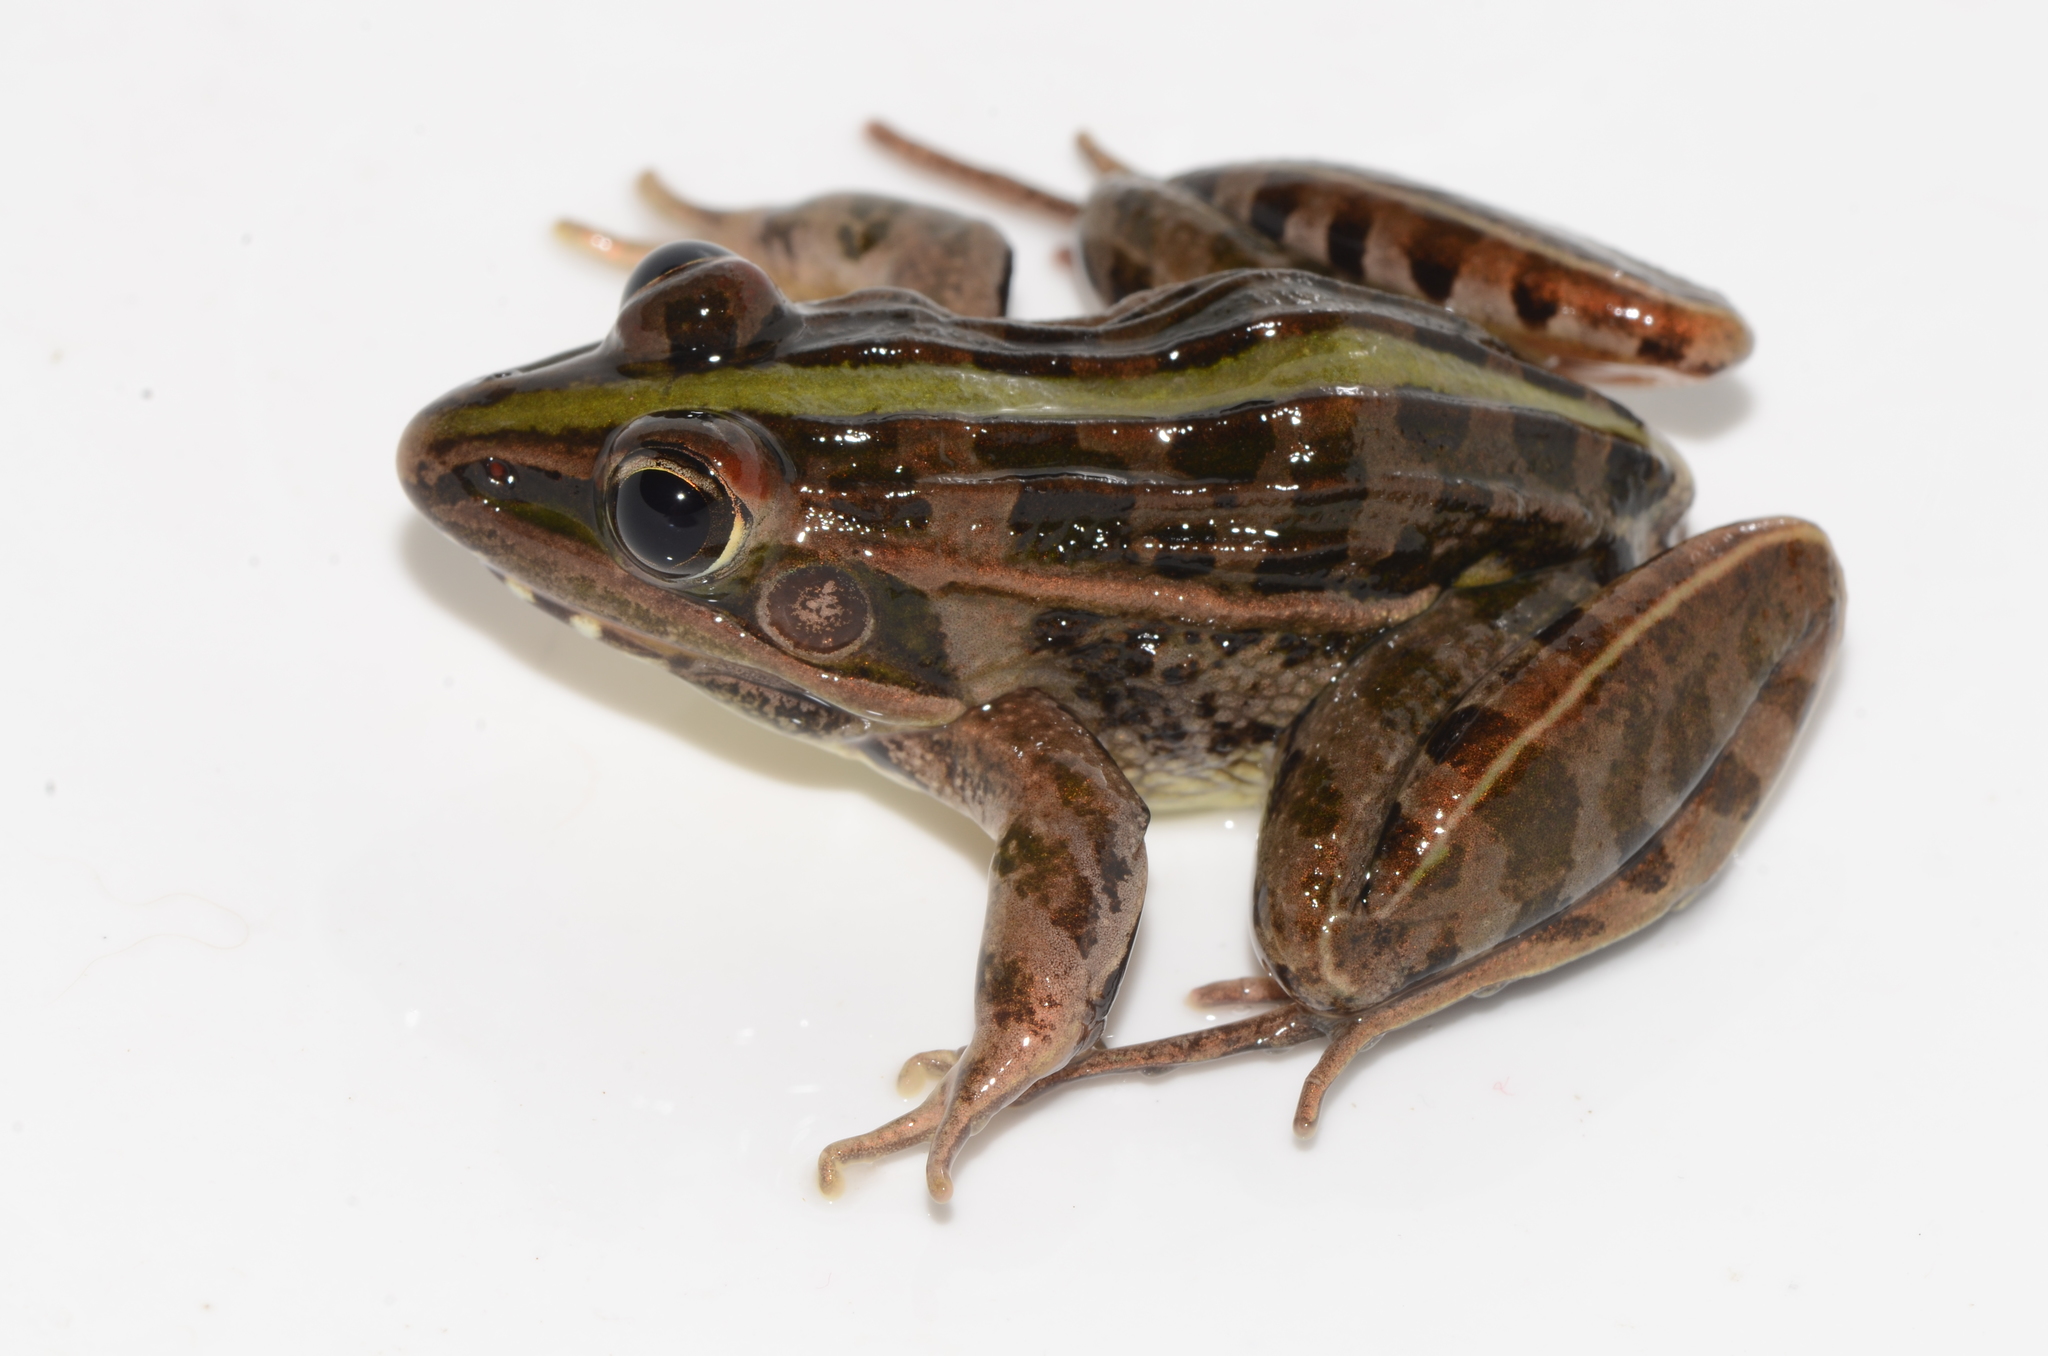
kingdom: Animalia
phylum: Chordata
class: Amphibia
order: Anura
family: Ptychadenidae
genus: Ptychadena
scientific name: Ptychadena nilotica
